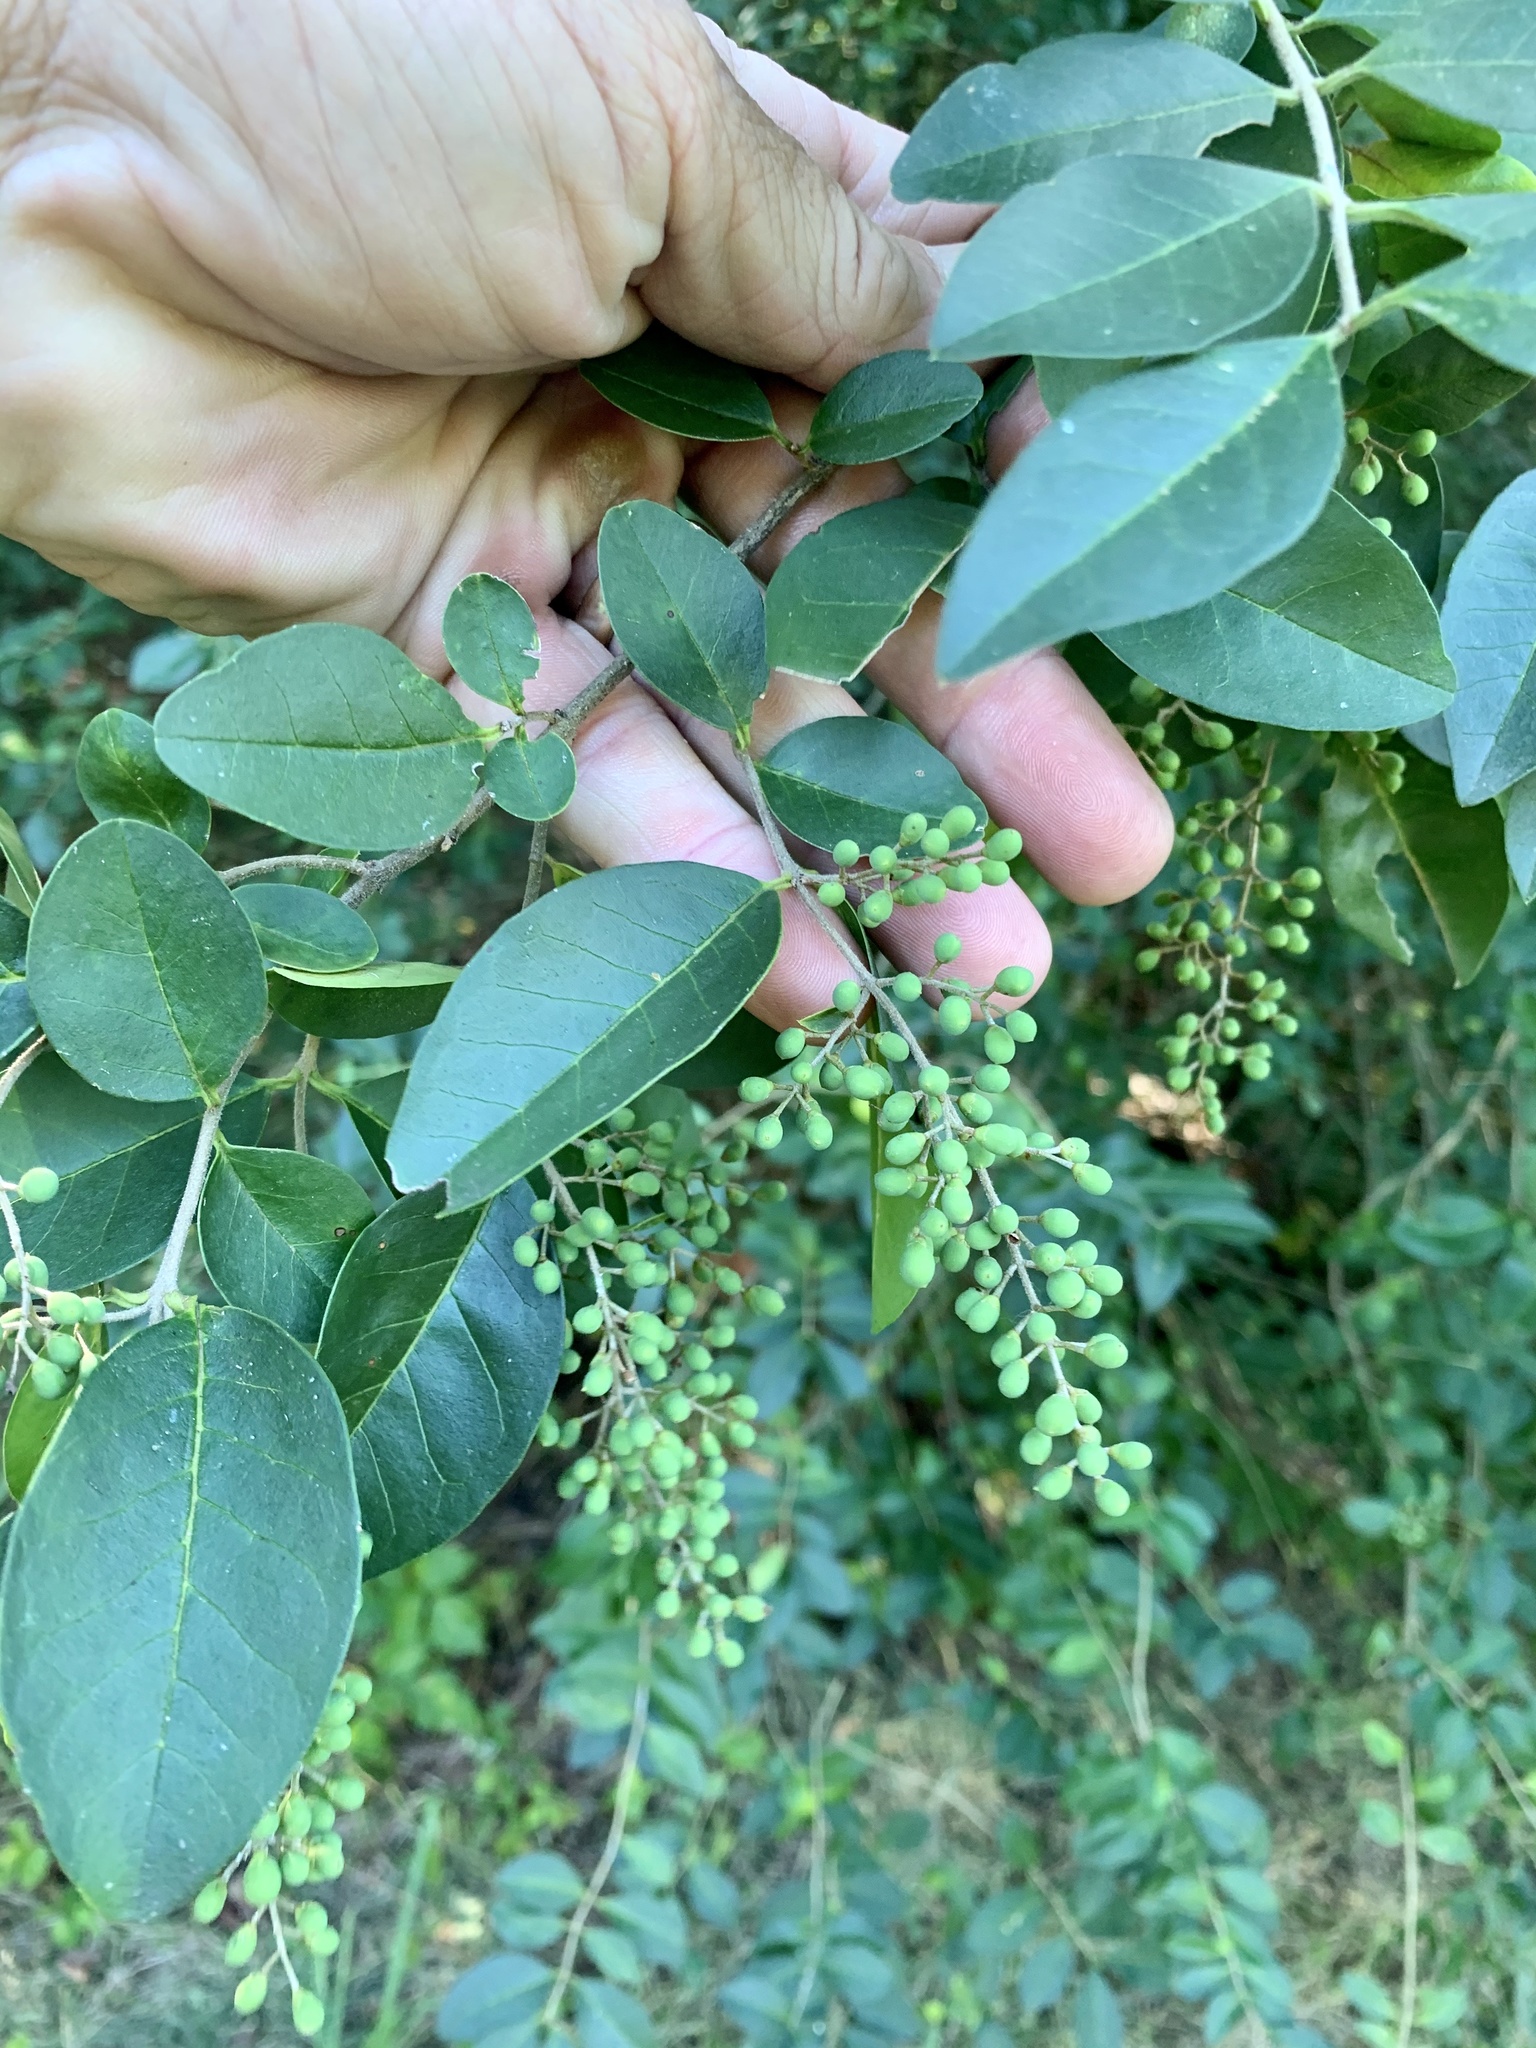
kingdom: Plantae
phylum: Tracheophyta
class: Magnoliopsida
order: Lamiales
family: Oleaceae
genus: Ligustrum
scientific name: Ligustrum sinense
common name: Chinese privet
